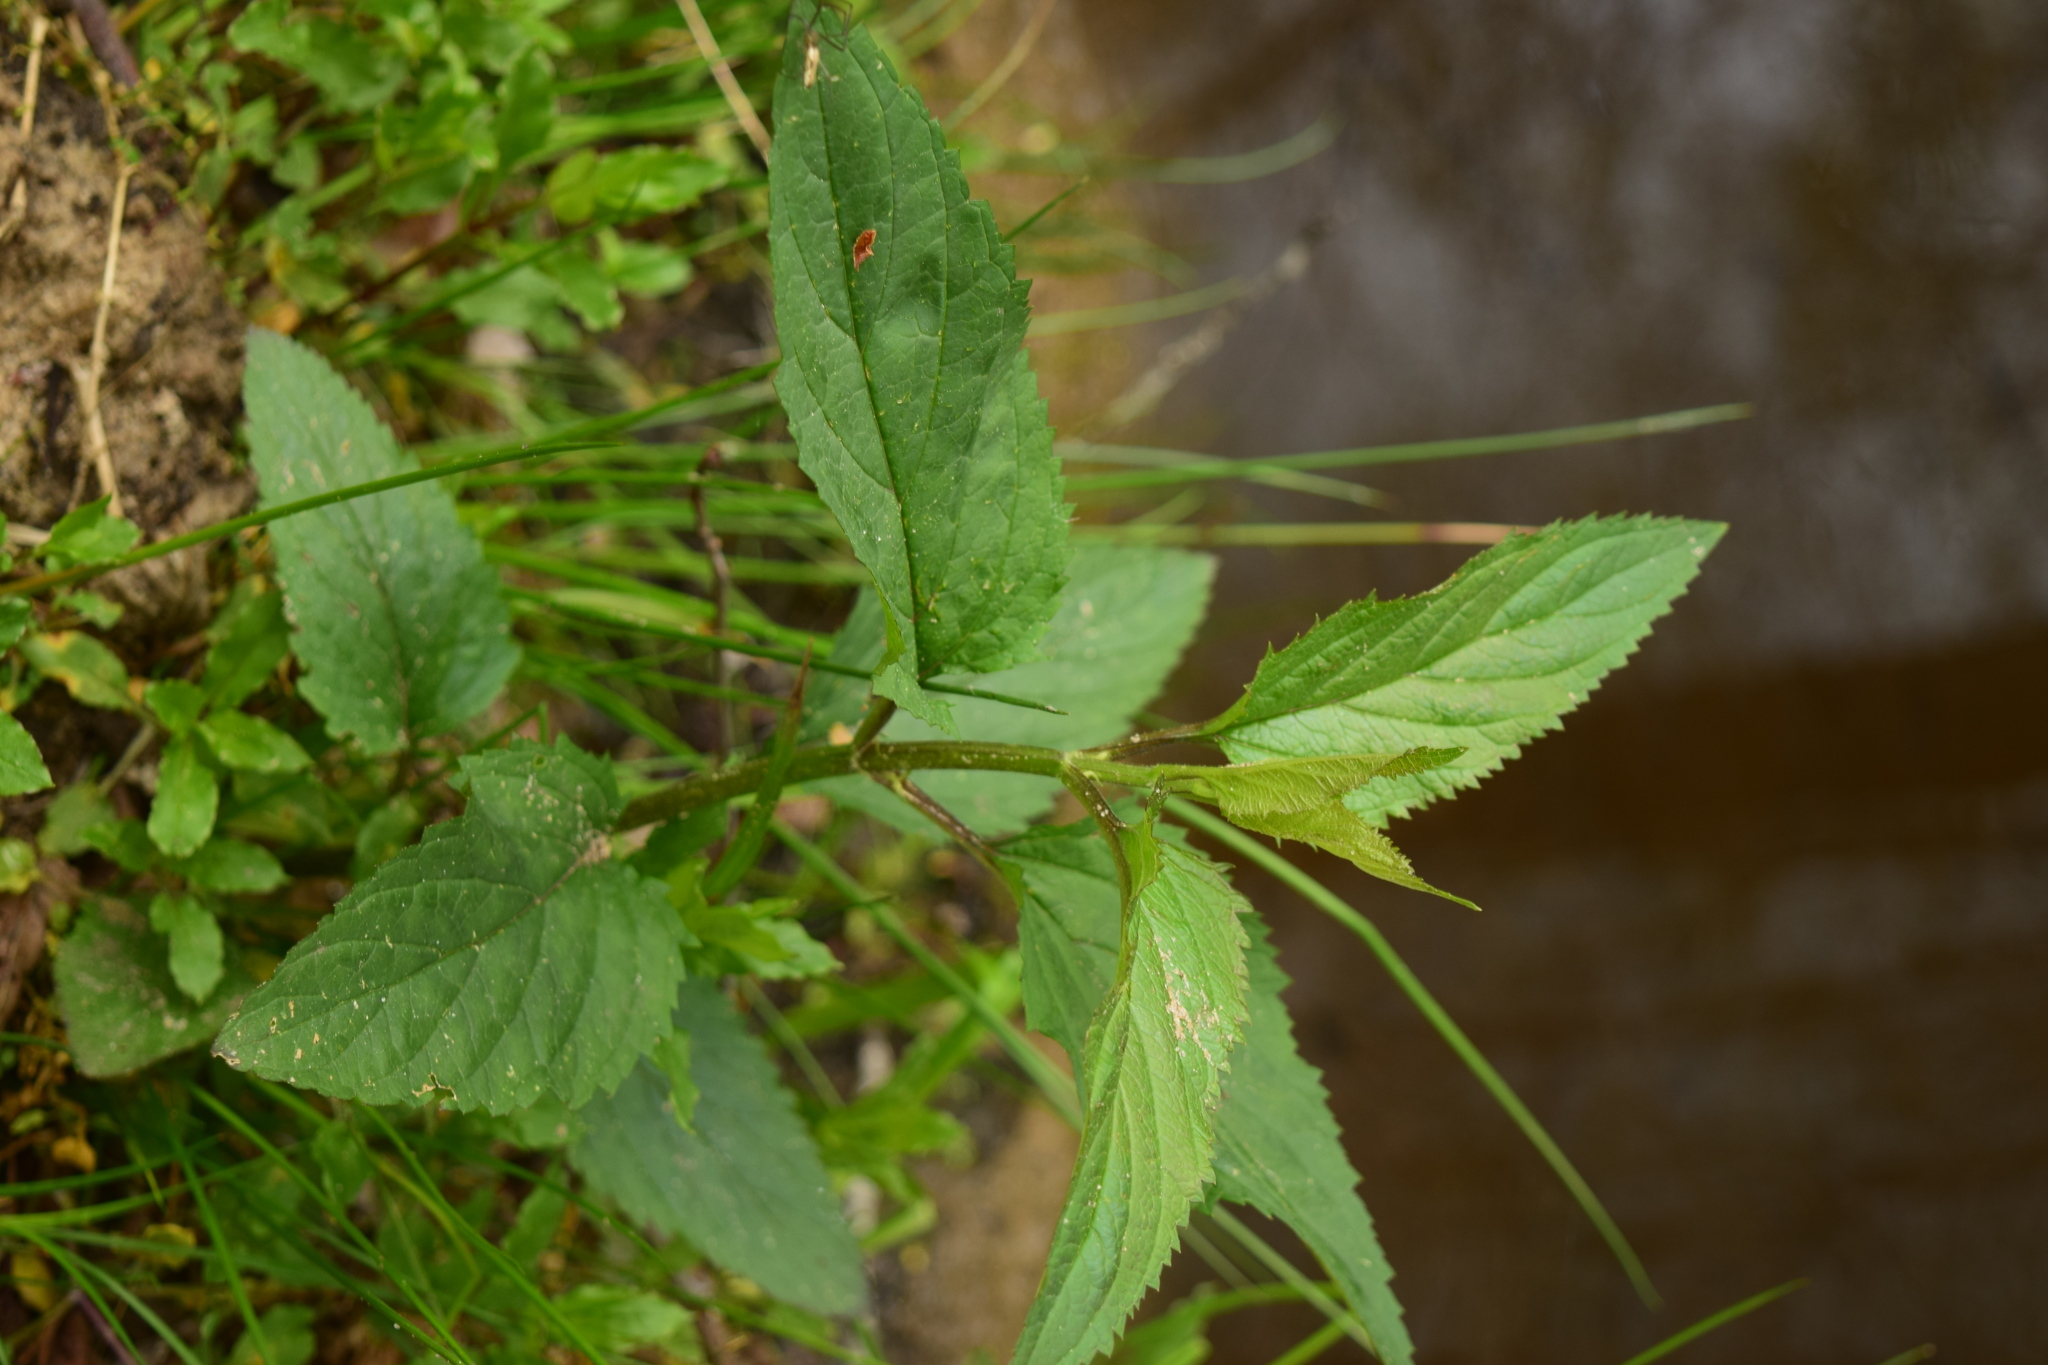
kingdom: Plantae
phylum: Tracheophyta
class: Magnoliopsida
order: Lamiales
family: Scrophulariaceae
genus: Scrophularia
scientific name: Scrophularia nodosa
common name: Common figwort
